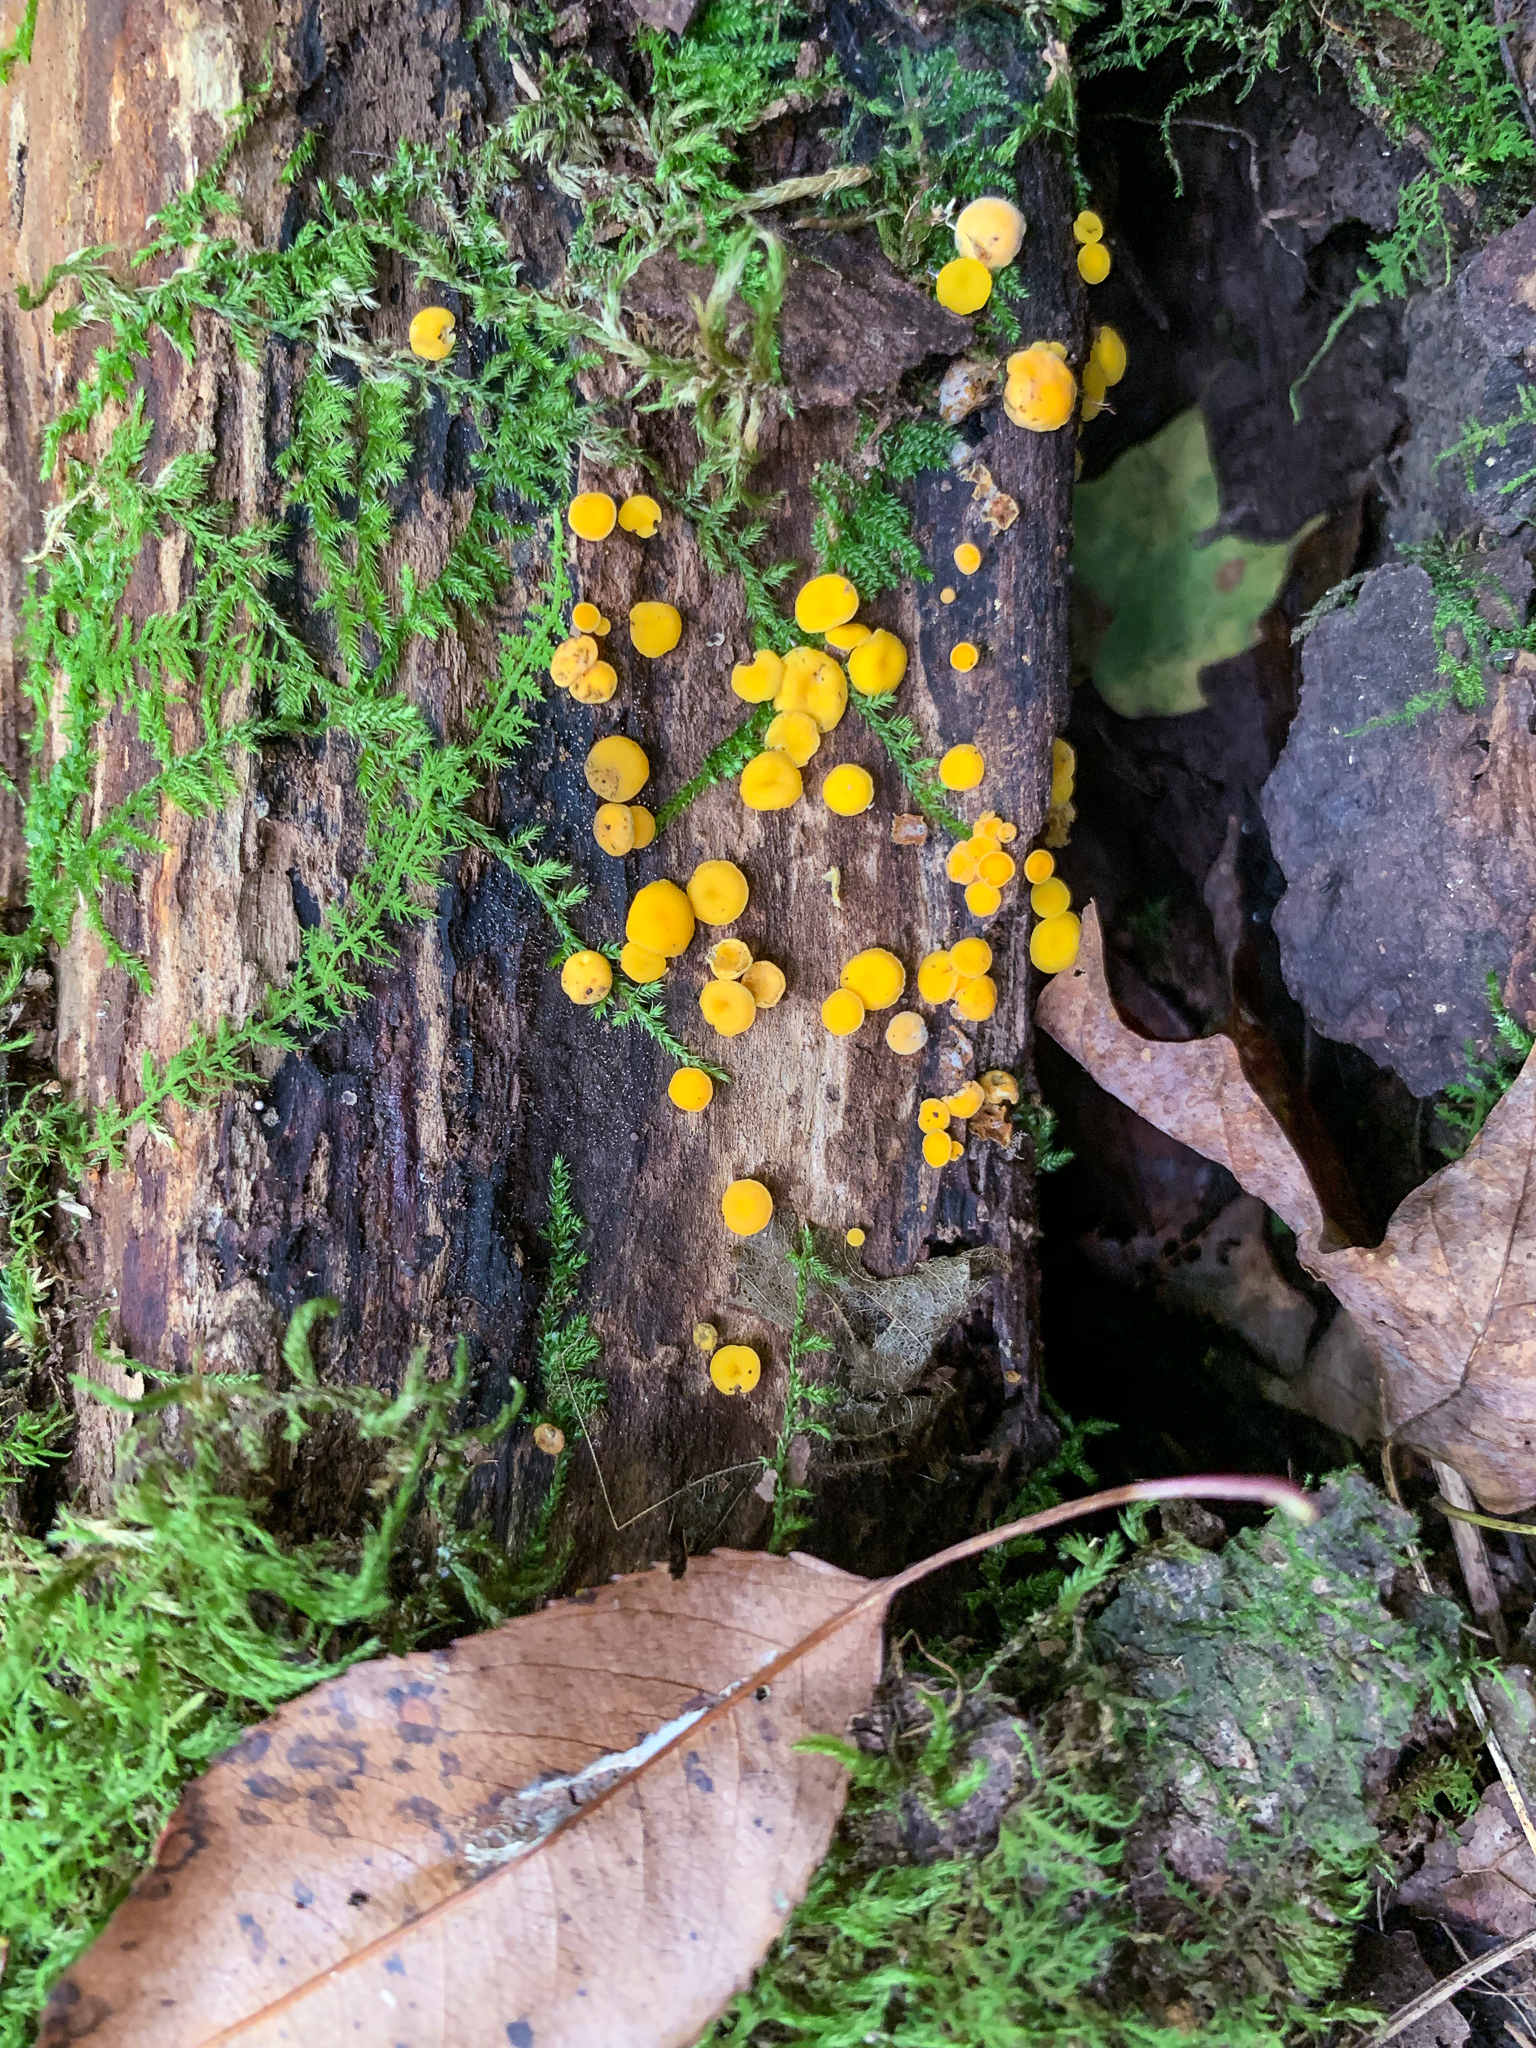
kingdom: Fungi
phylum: Ascomycota
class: Leotiomycetes
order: Helotiales
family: Pezizellaceae
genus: Calycina
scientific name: Calycina citrina
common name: Yellow fairy cups
